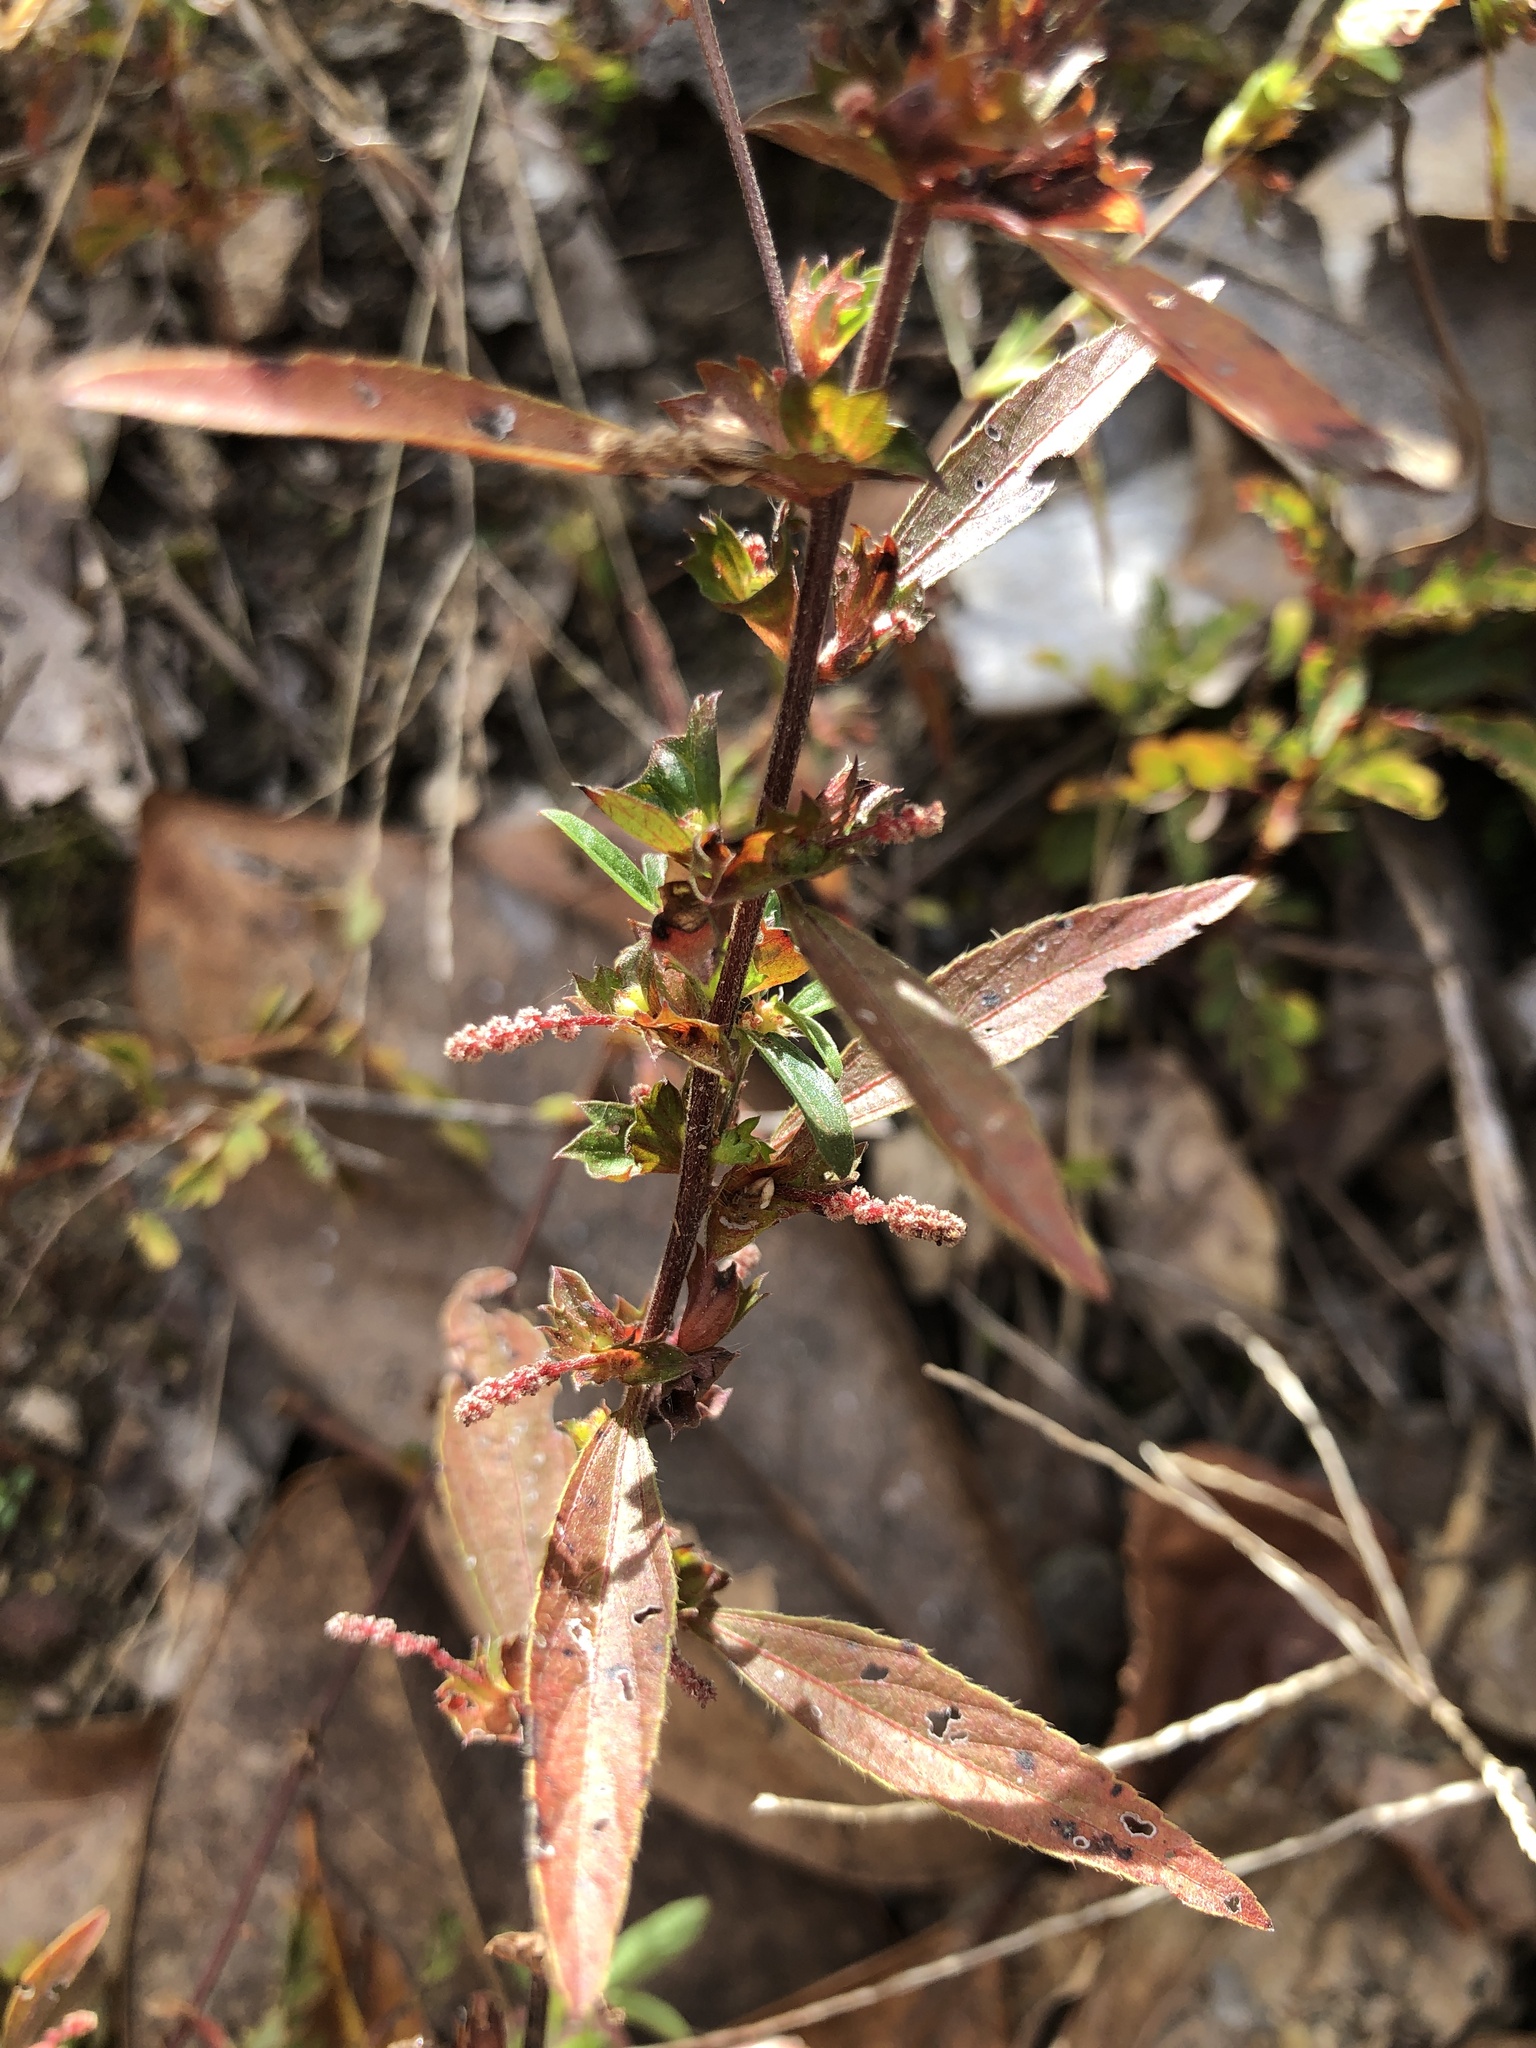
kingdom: Plantae
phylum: Tracheophyta
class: Magnoliopsida
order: Malpighiales
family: Euphorbiaceae
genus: Acalypha
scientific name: Acalypha gracilens
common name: Slender three-seeded mercury
